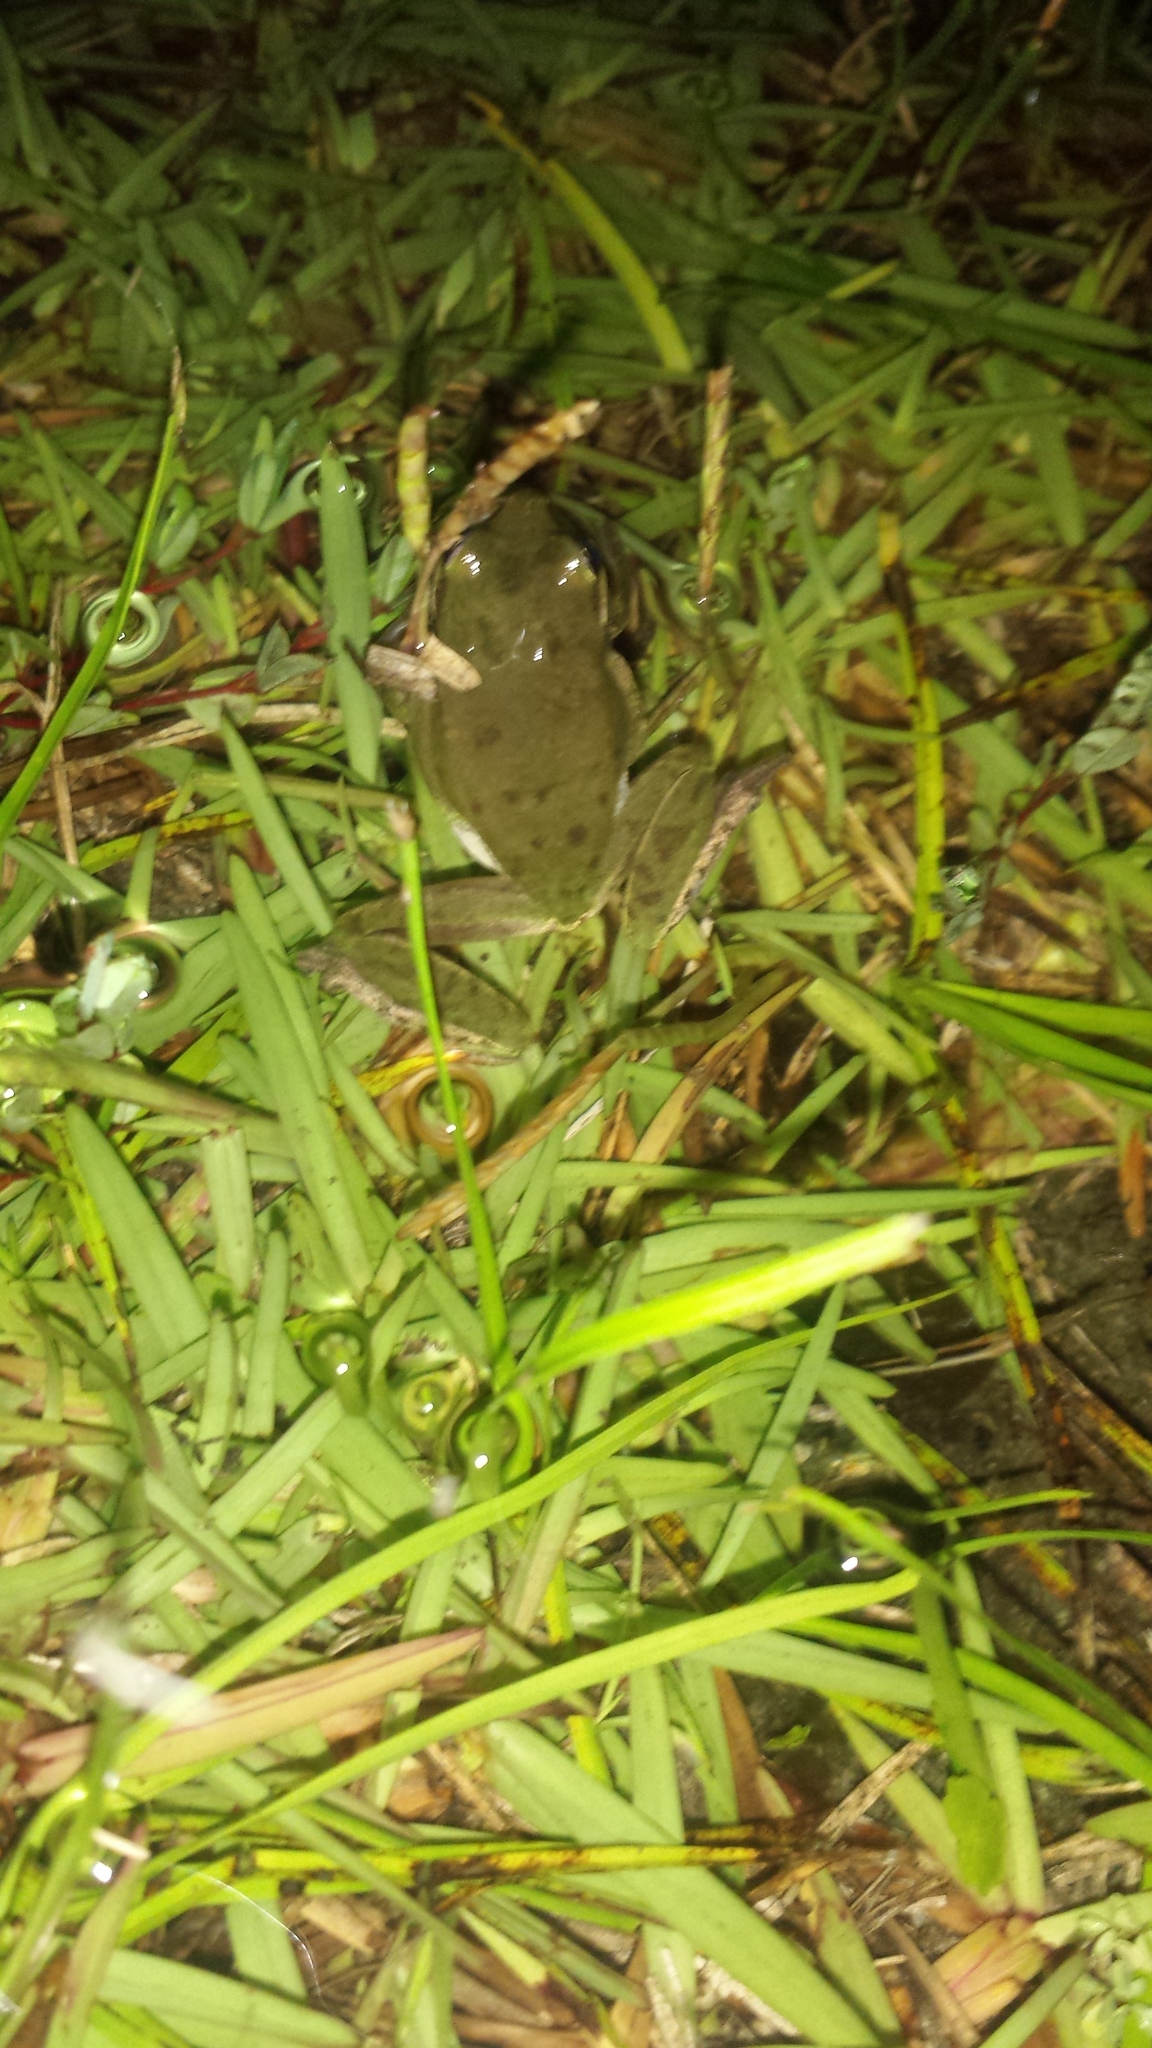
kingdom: Animalia
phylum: Chordata
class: Amphibia
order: Anura
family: Hylidae
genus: Dryophytes
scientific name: Dryophytes squirellus
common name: Squirrel treefrog
